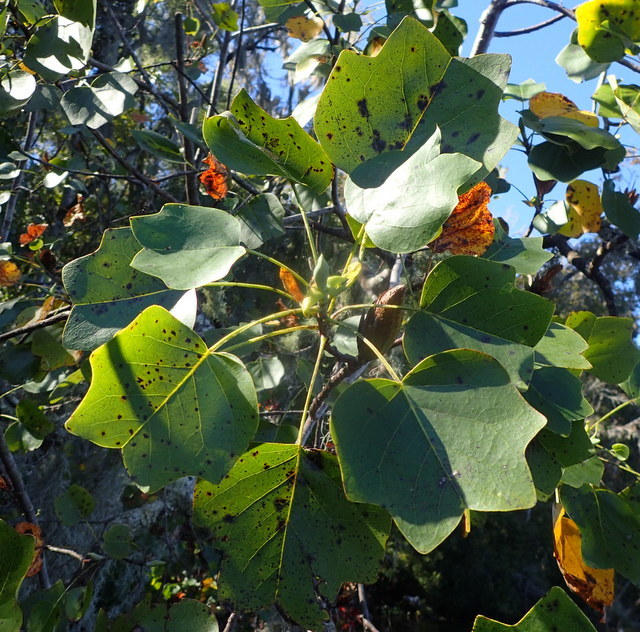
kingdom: Plantae
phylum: Tracheophyta
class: Magnoliopsida
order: Magnoliales
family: Magnoliaceae
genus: Liriodendron
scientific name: Liriodendron tulipifera
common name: Tulip tree
